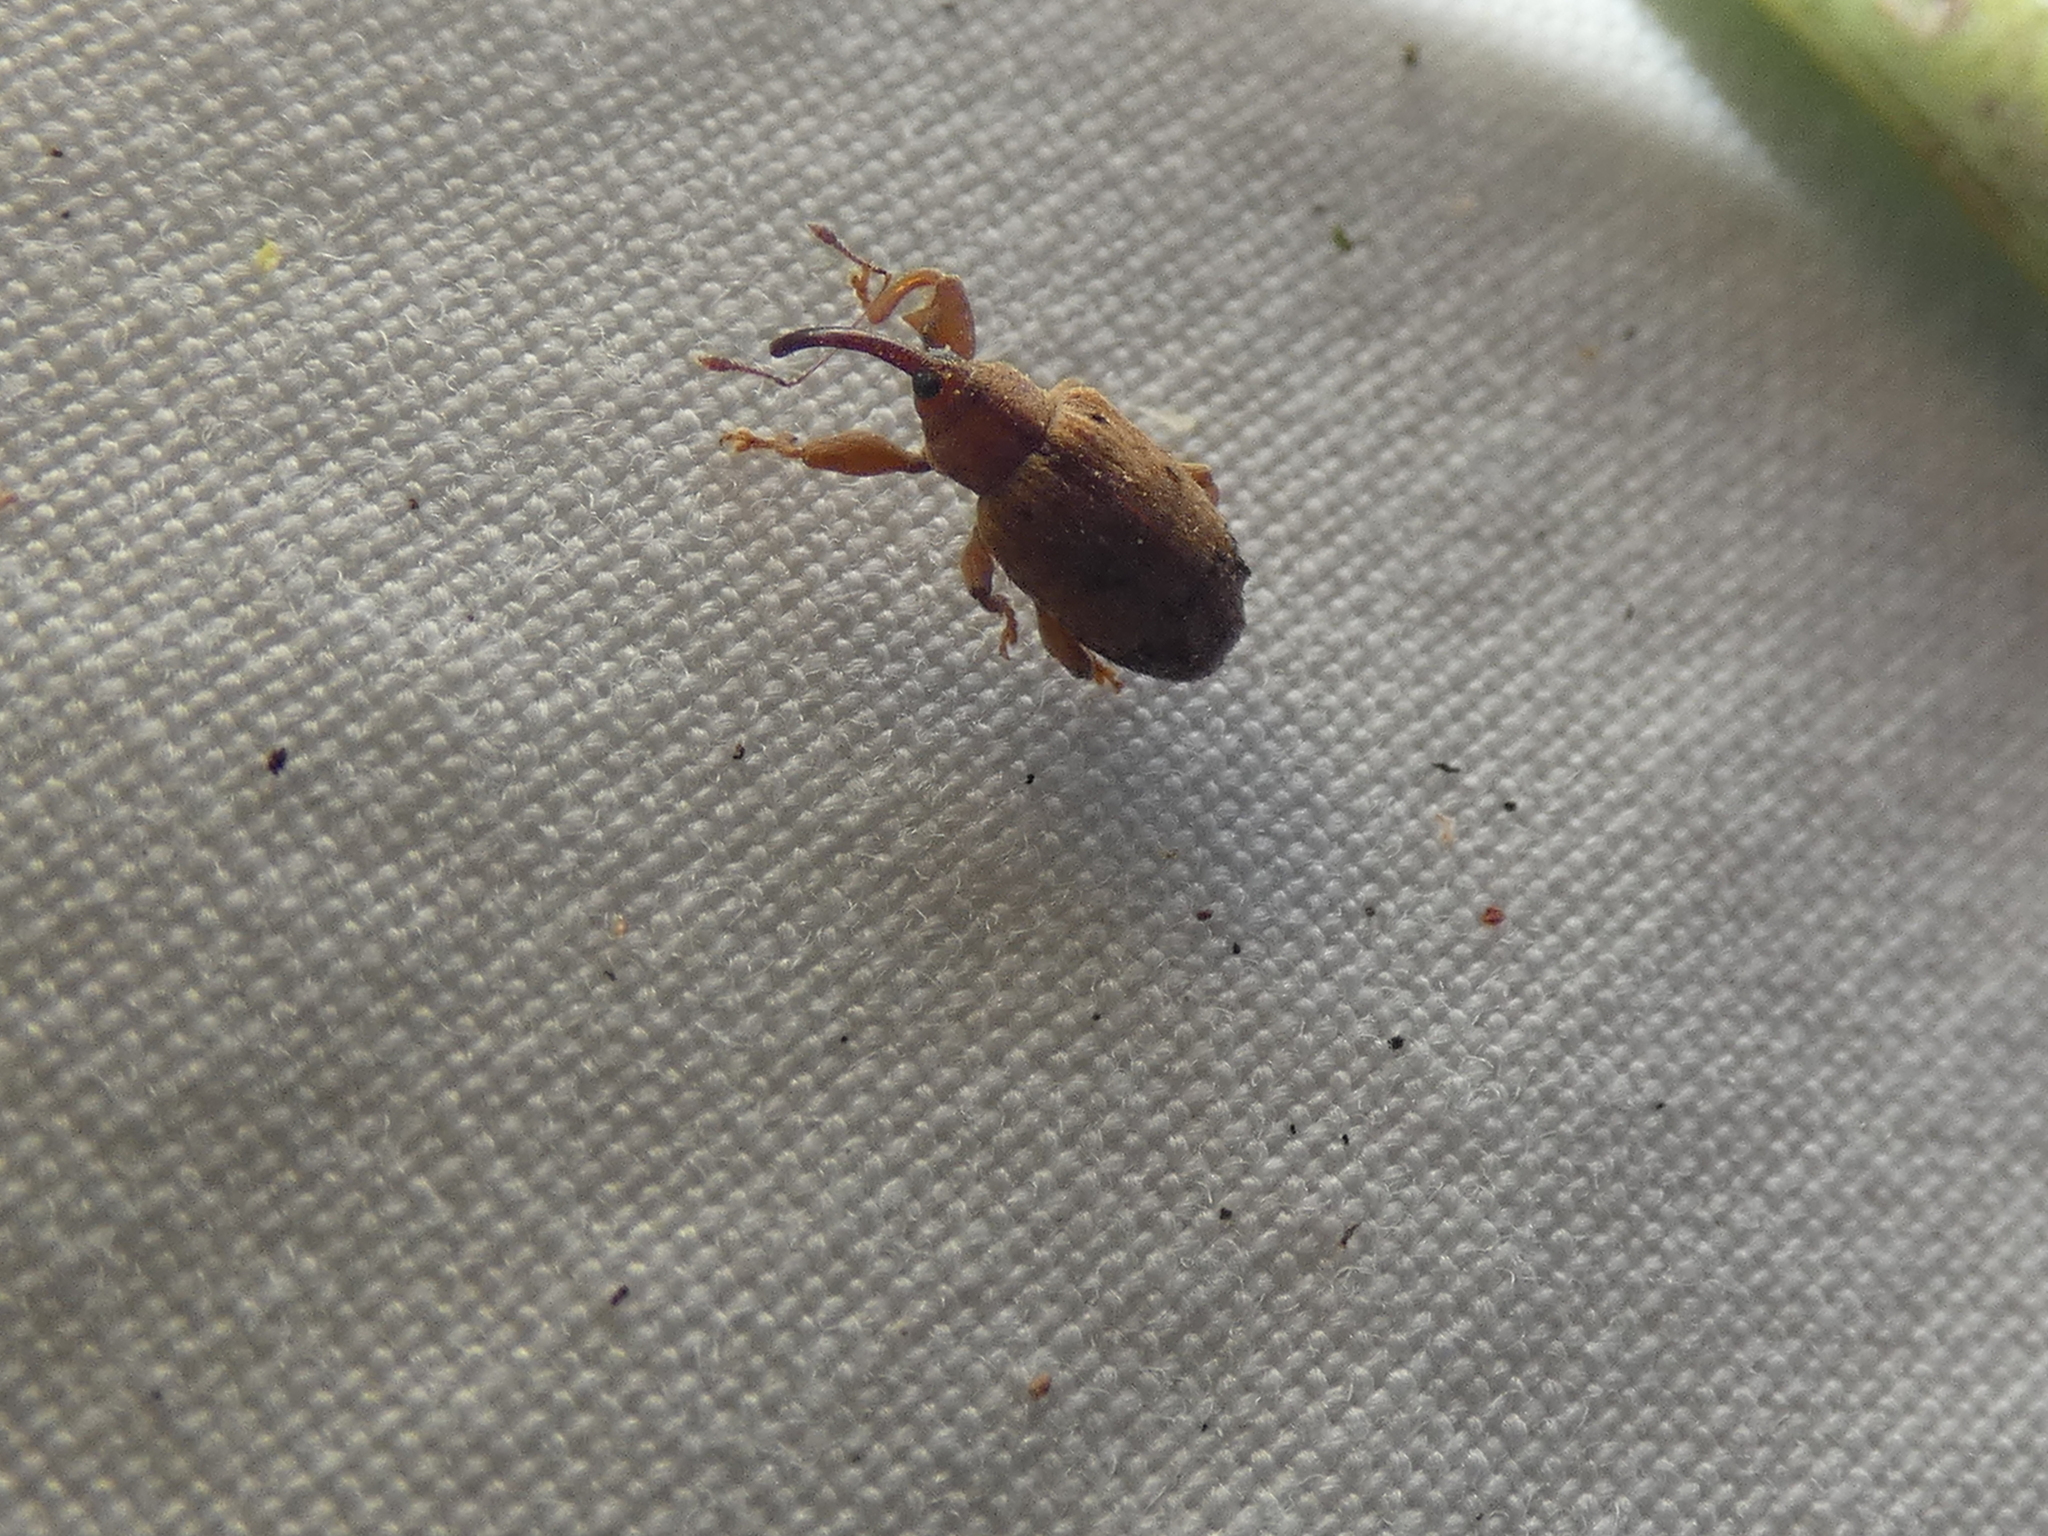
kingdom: Animalia
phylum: Arthropoda
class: Insecta
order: Coleoptera
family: Curculionidae
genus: Ochyromera
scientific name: Ochyromera ligustri
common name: Weevil
